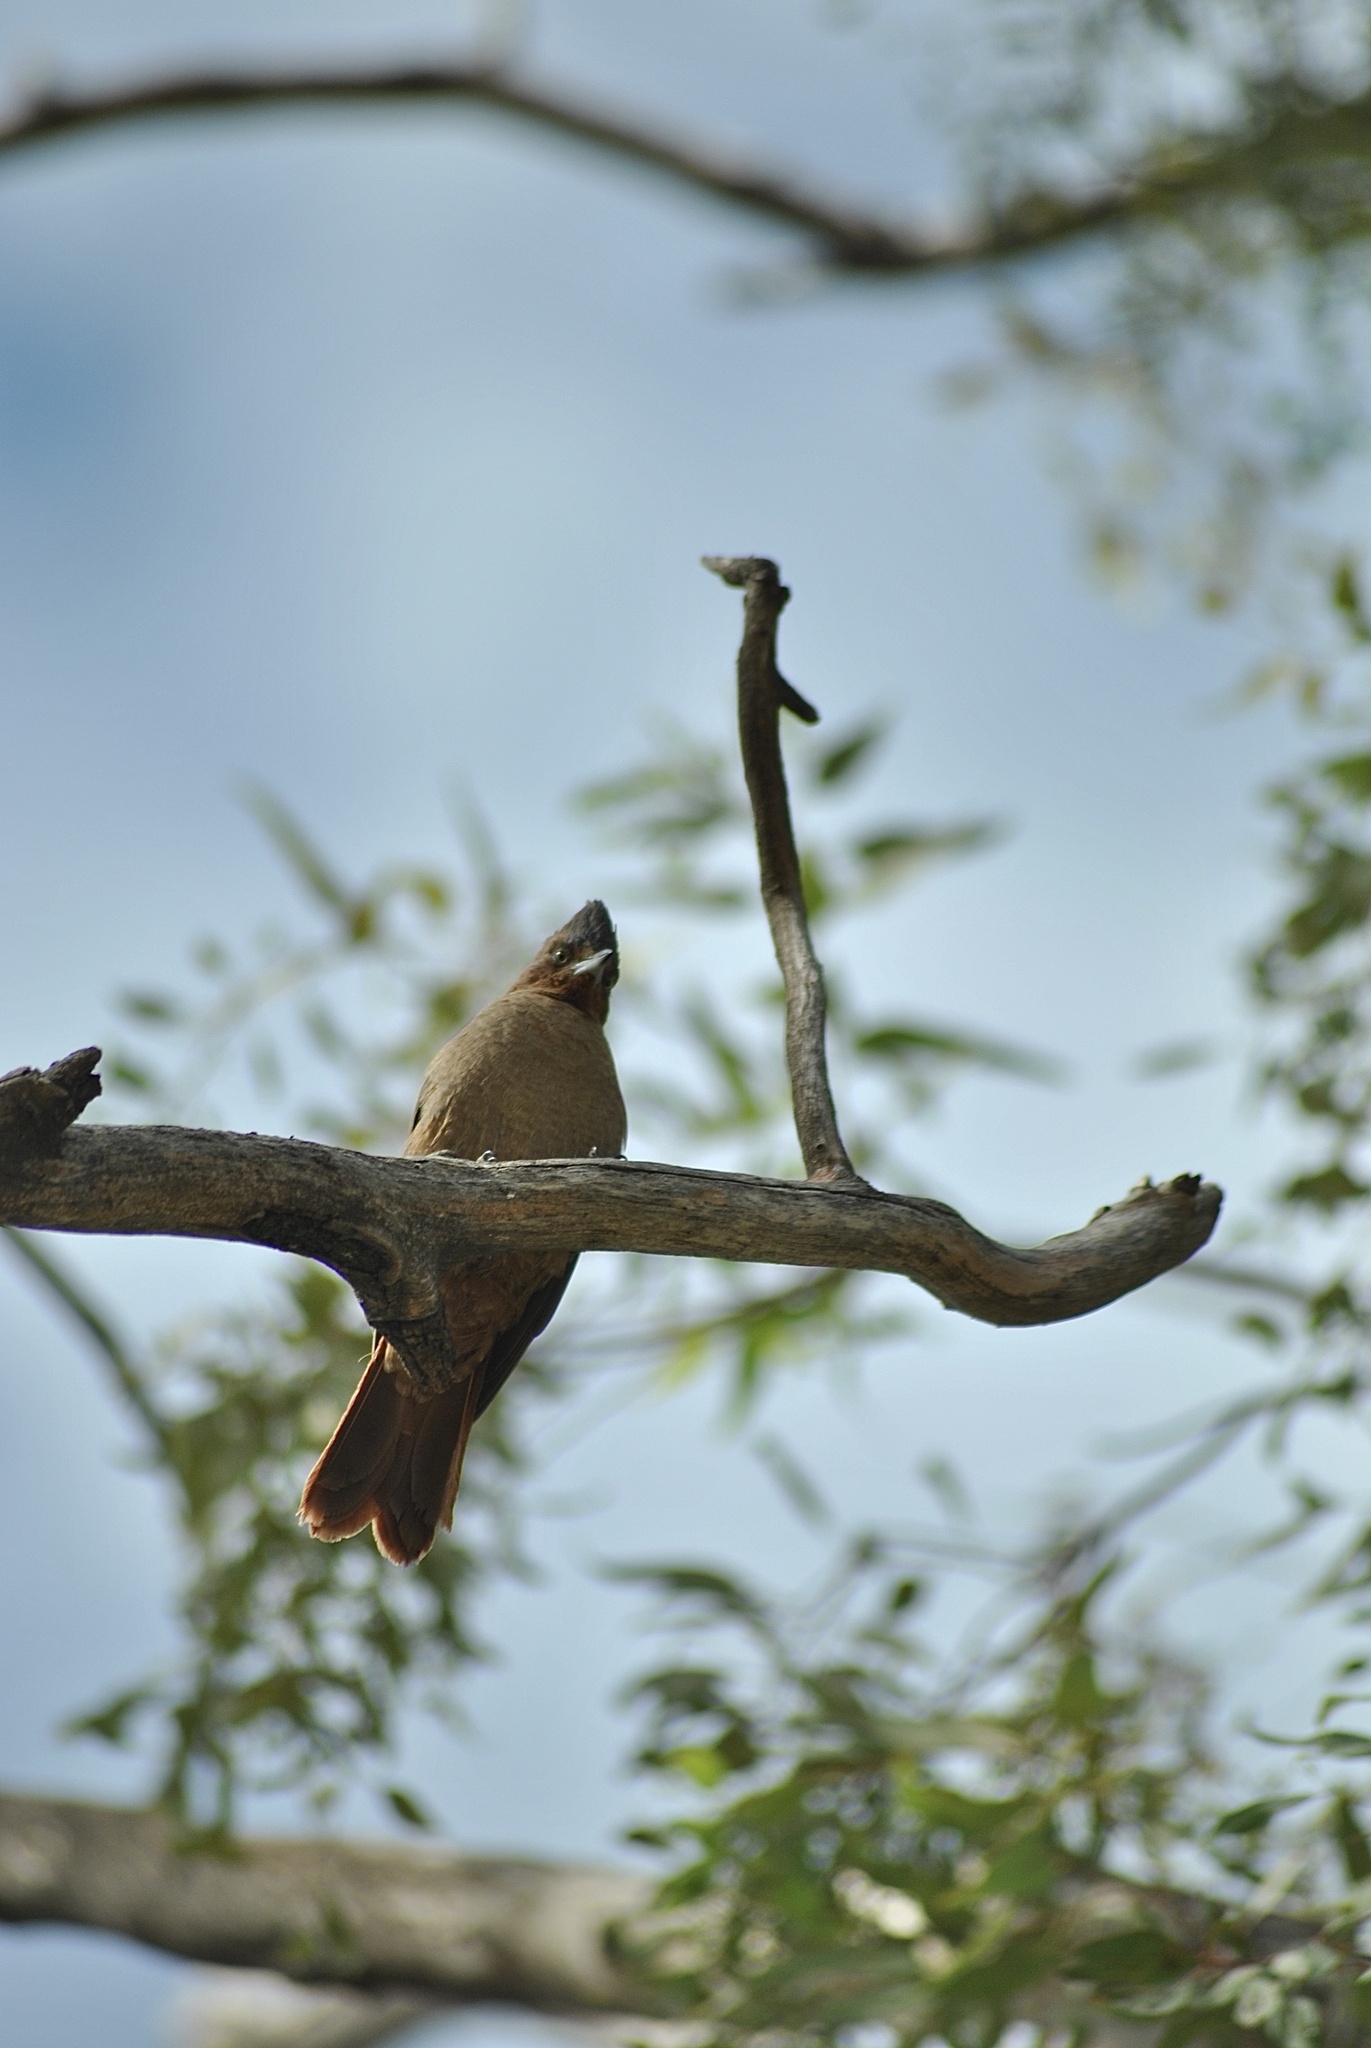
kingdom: Animalia
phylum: Chordata
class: Aves
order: Passeriformes
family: Furnariidae
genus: Pseudoseisura
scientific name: Pseudoseisura lophotes
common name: Brown cacholote
